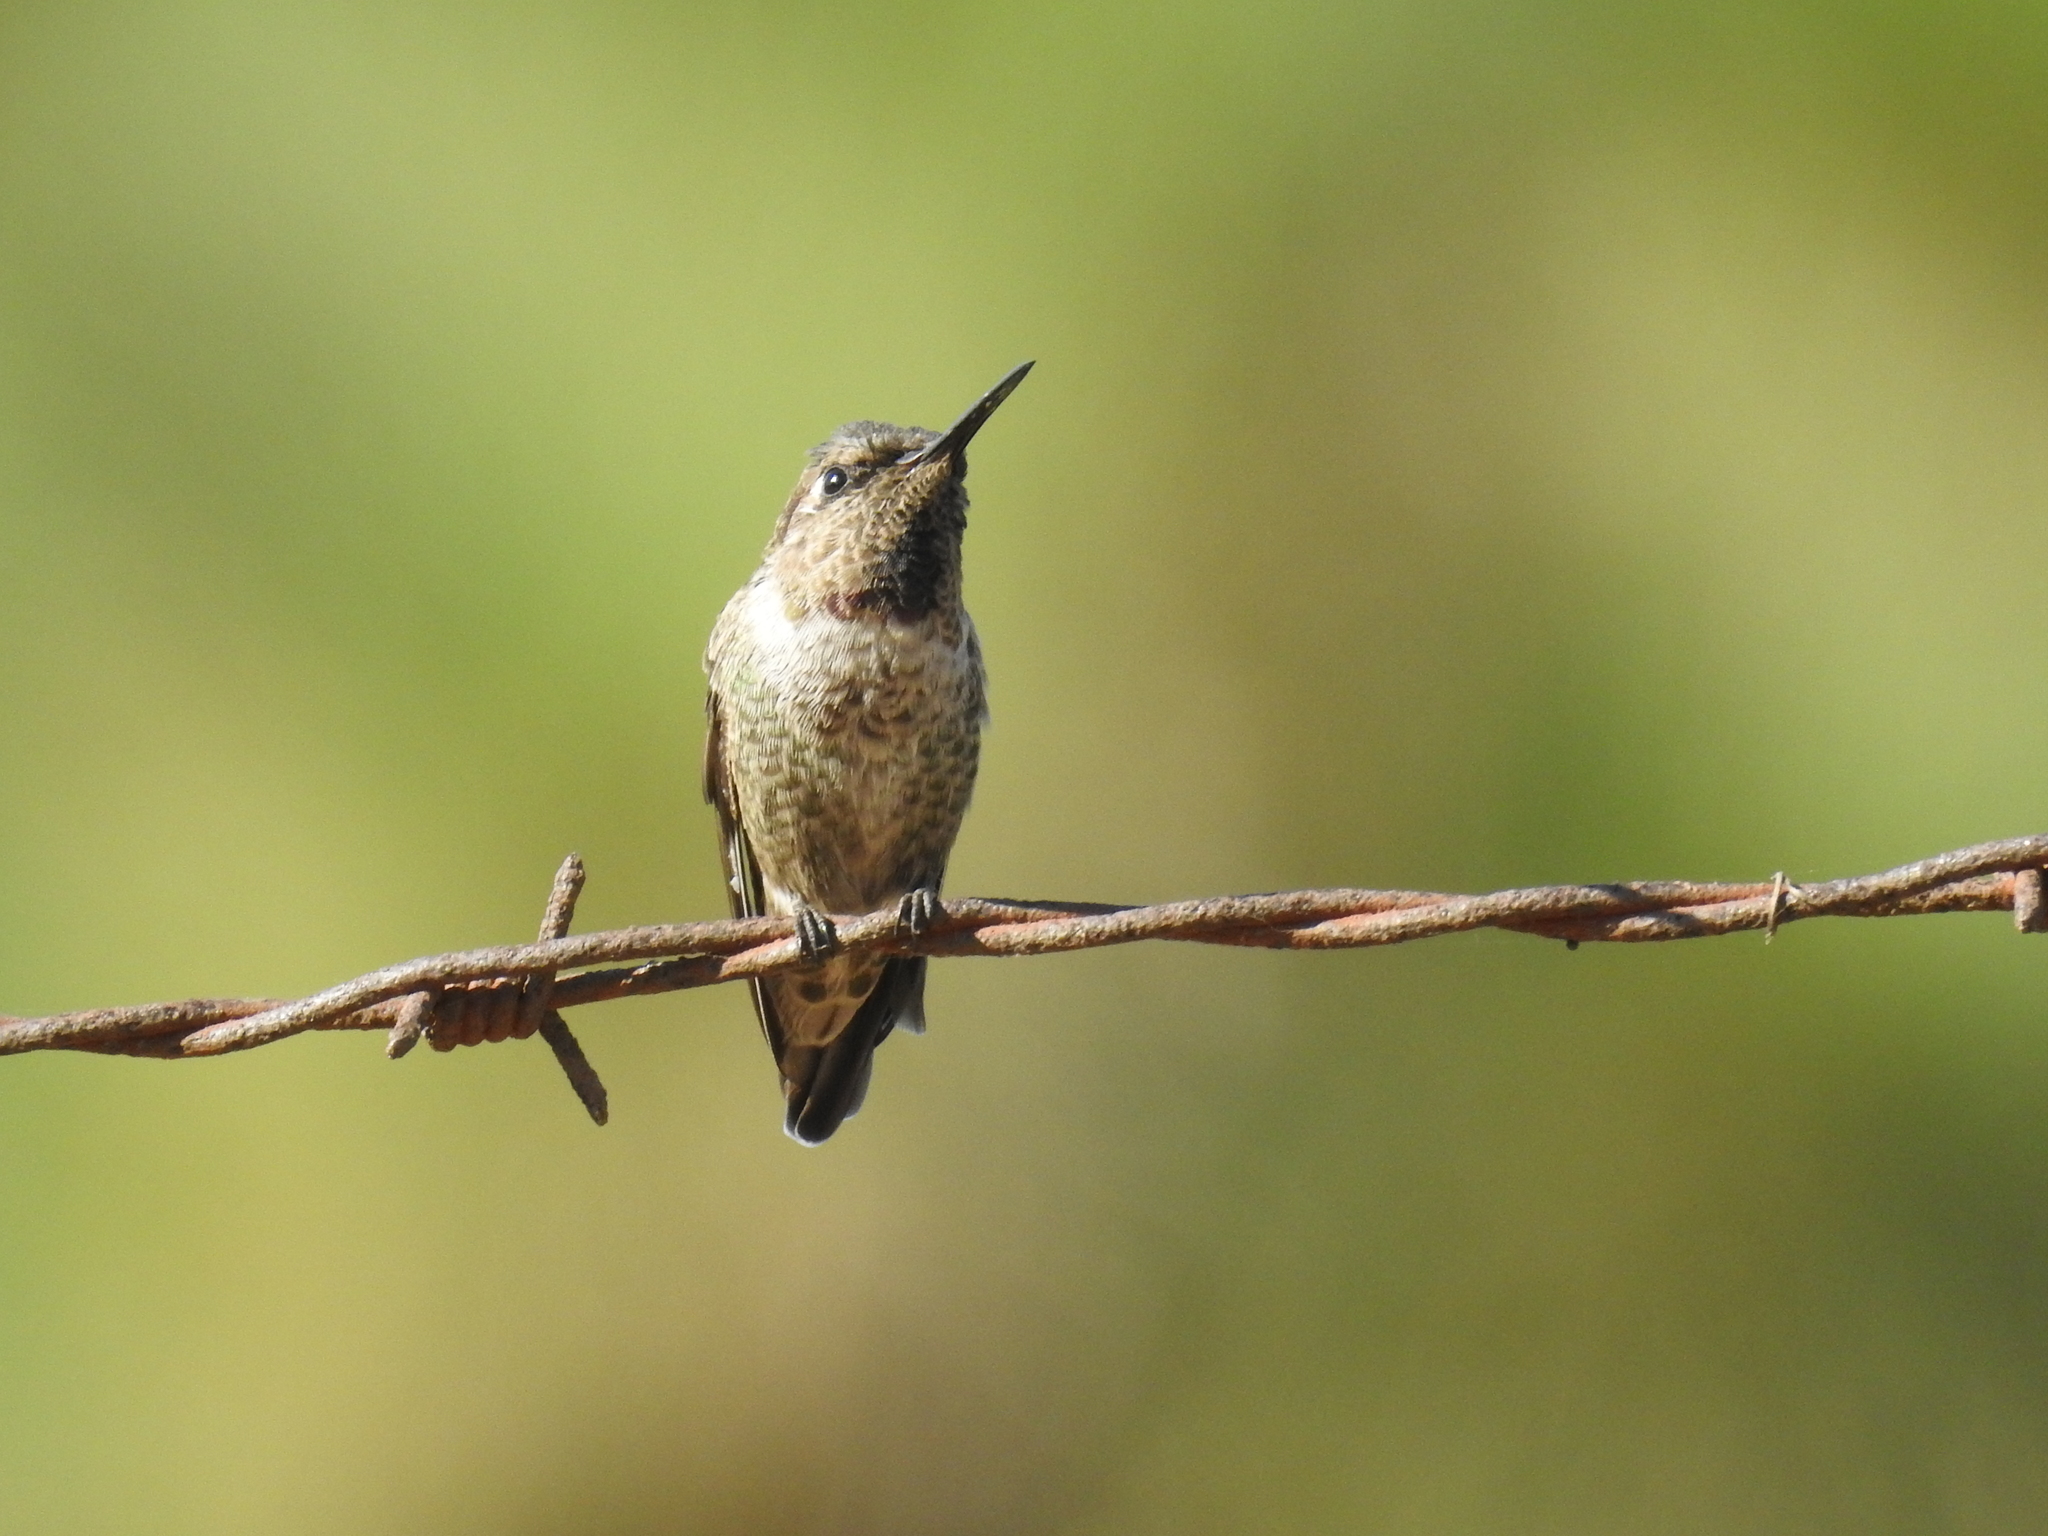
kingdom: Animalia
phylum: Chordata
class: Aves
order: Apodiformes
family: Trochilidae
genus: Calypte
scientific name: Calypte anna
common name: Anna's hummingbird
